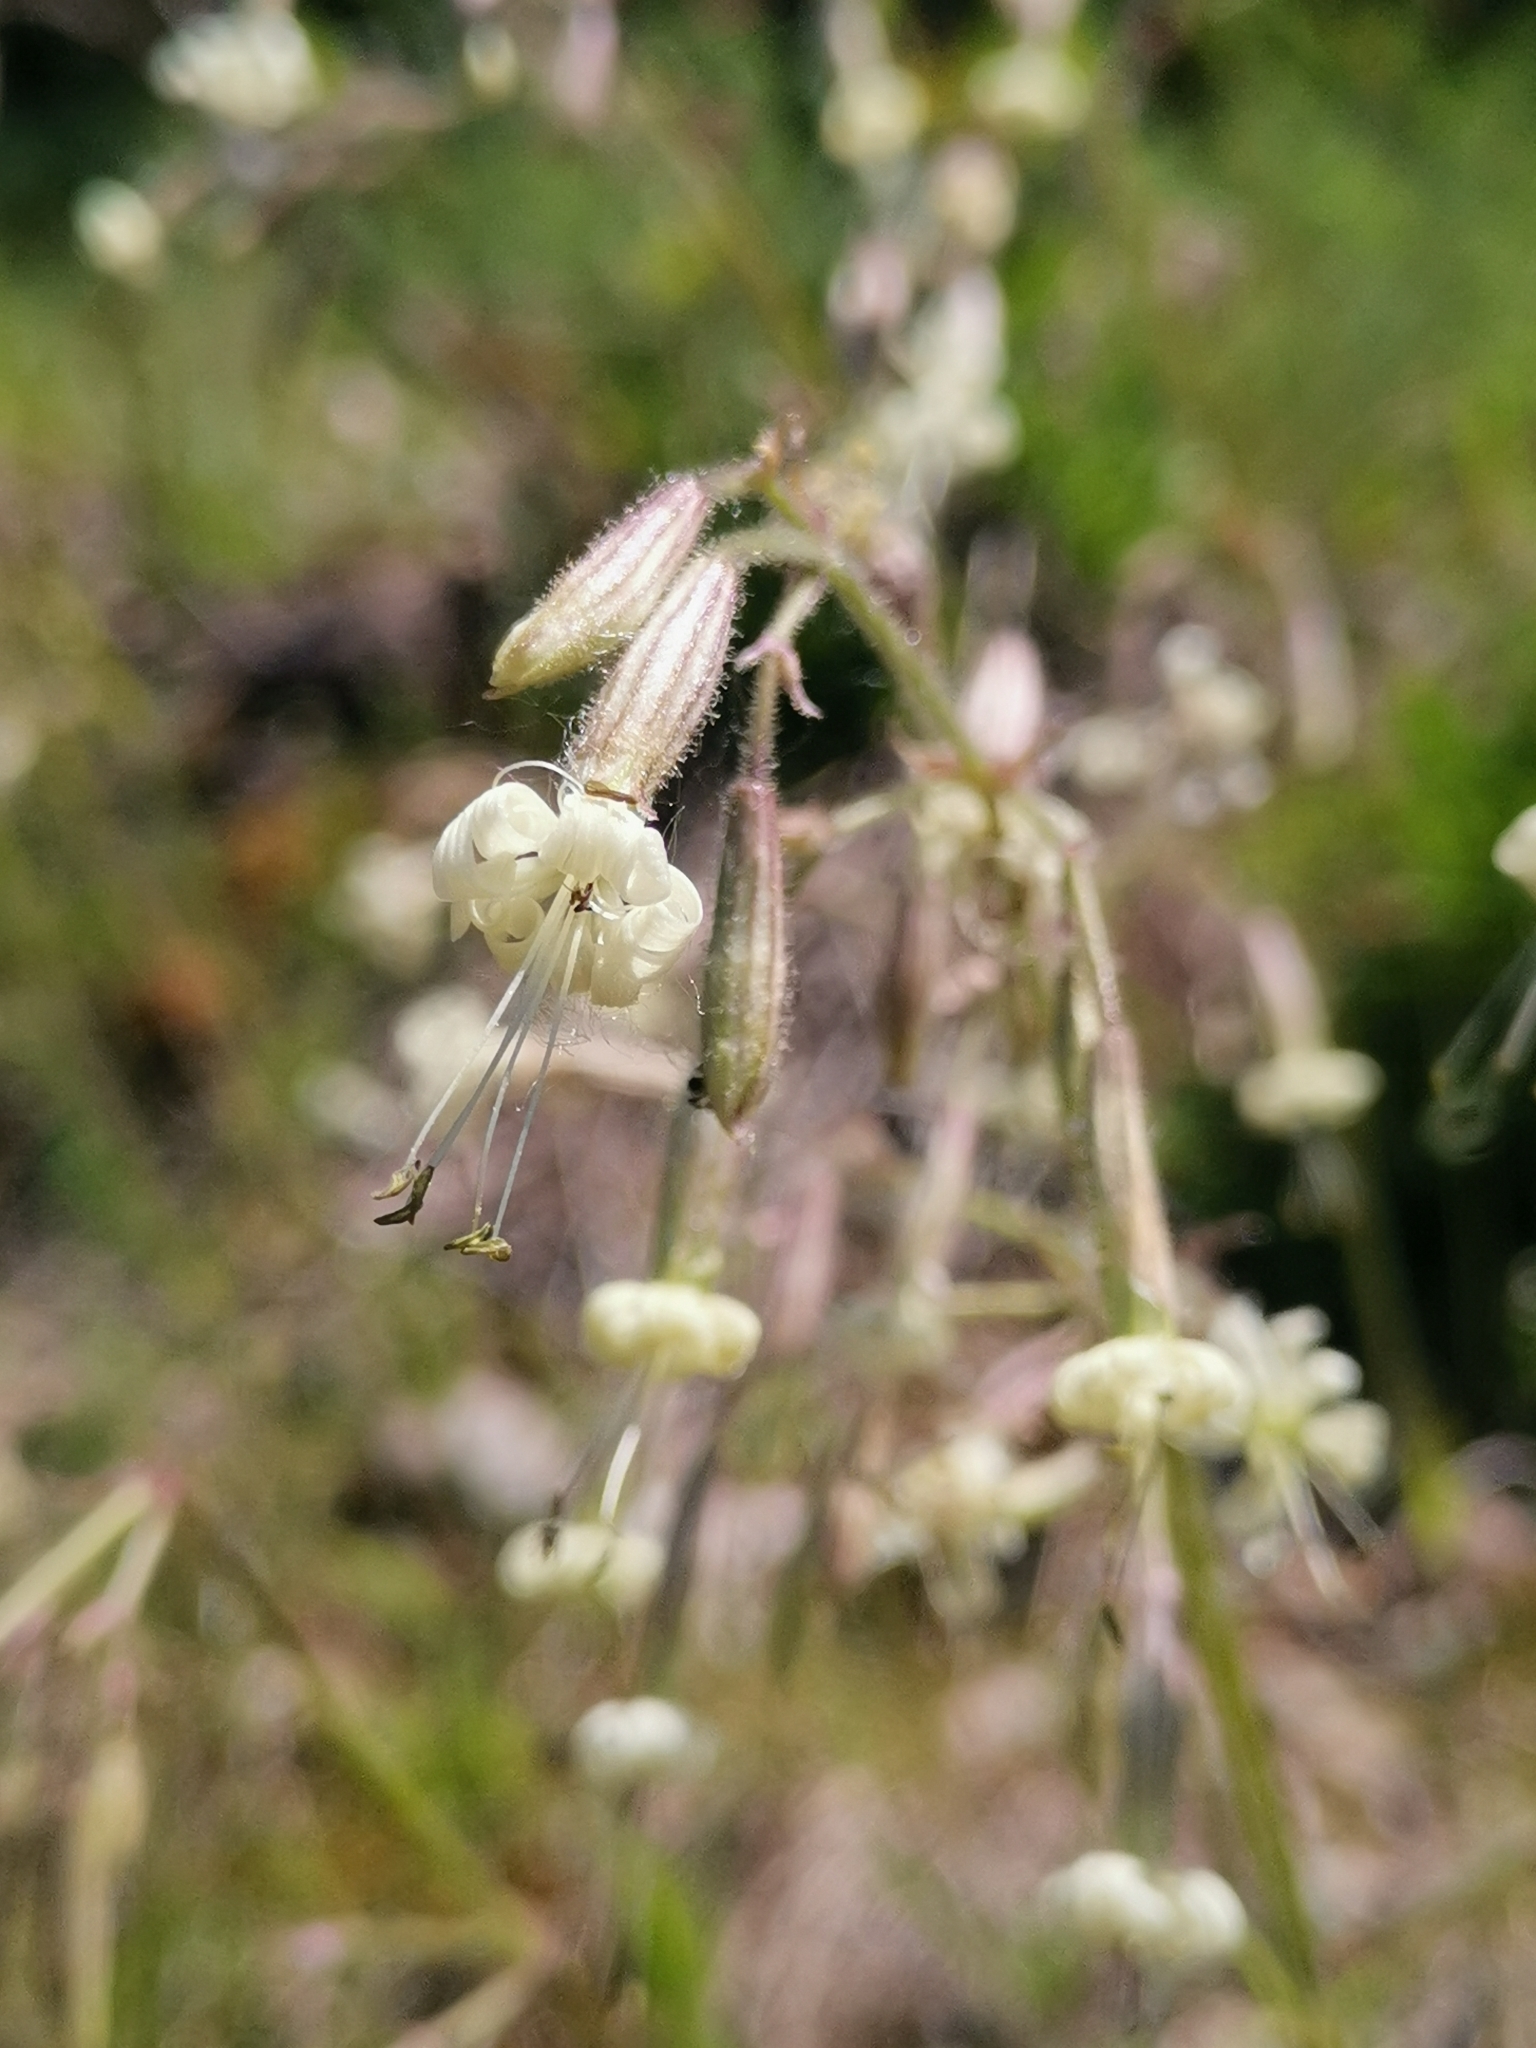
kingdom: Plantae
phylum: Tracheophyta
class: Magnoliopsida
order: Caryophyllales
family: Caryophyllaceae
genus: Silene
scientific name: Silene nutans
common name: Nottingham catchfly
